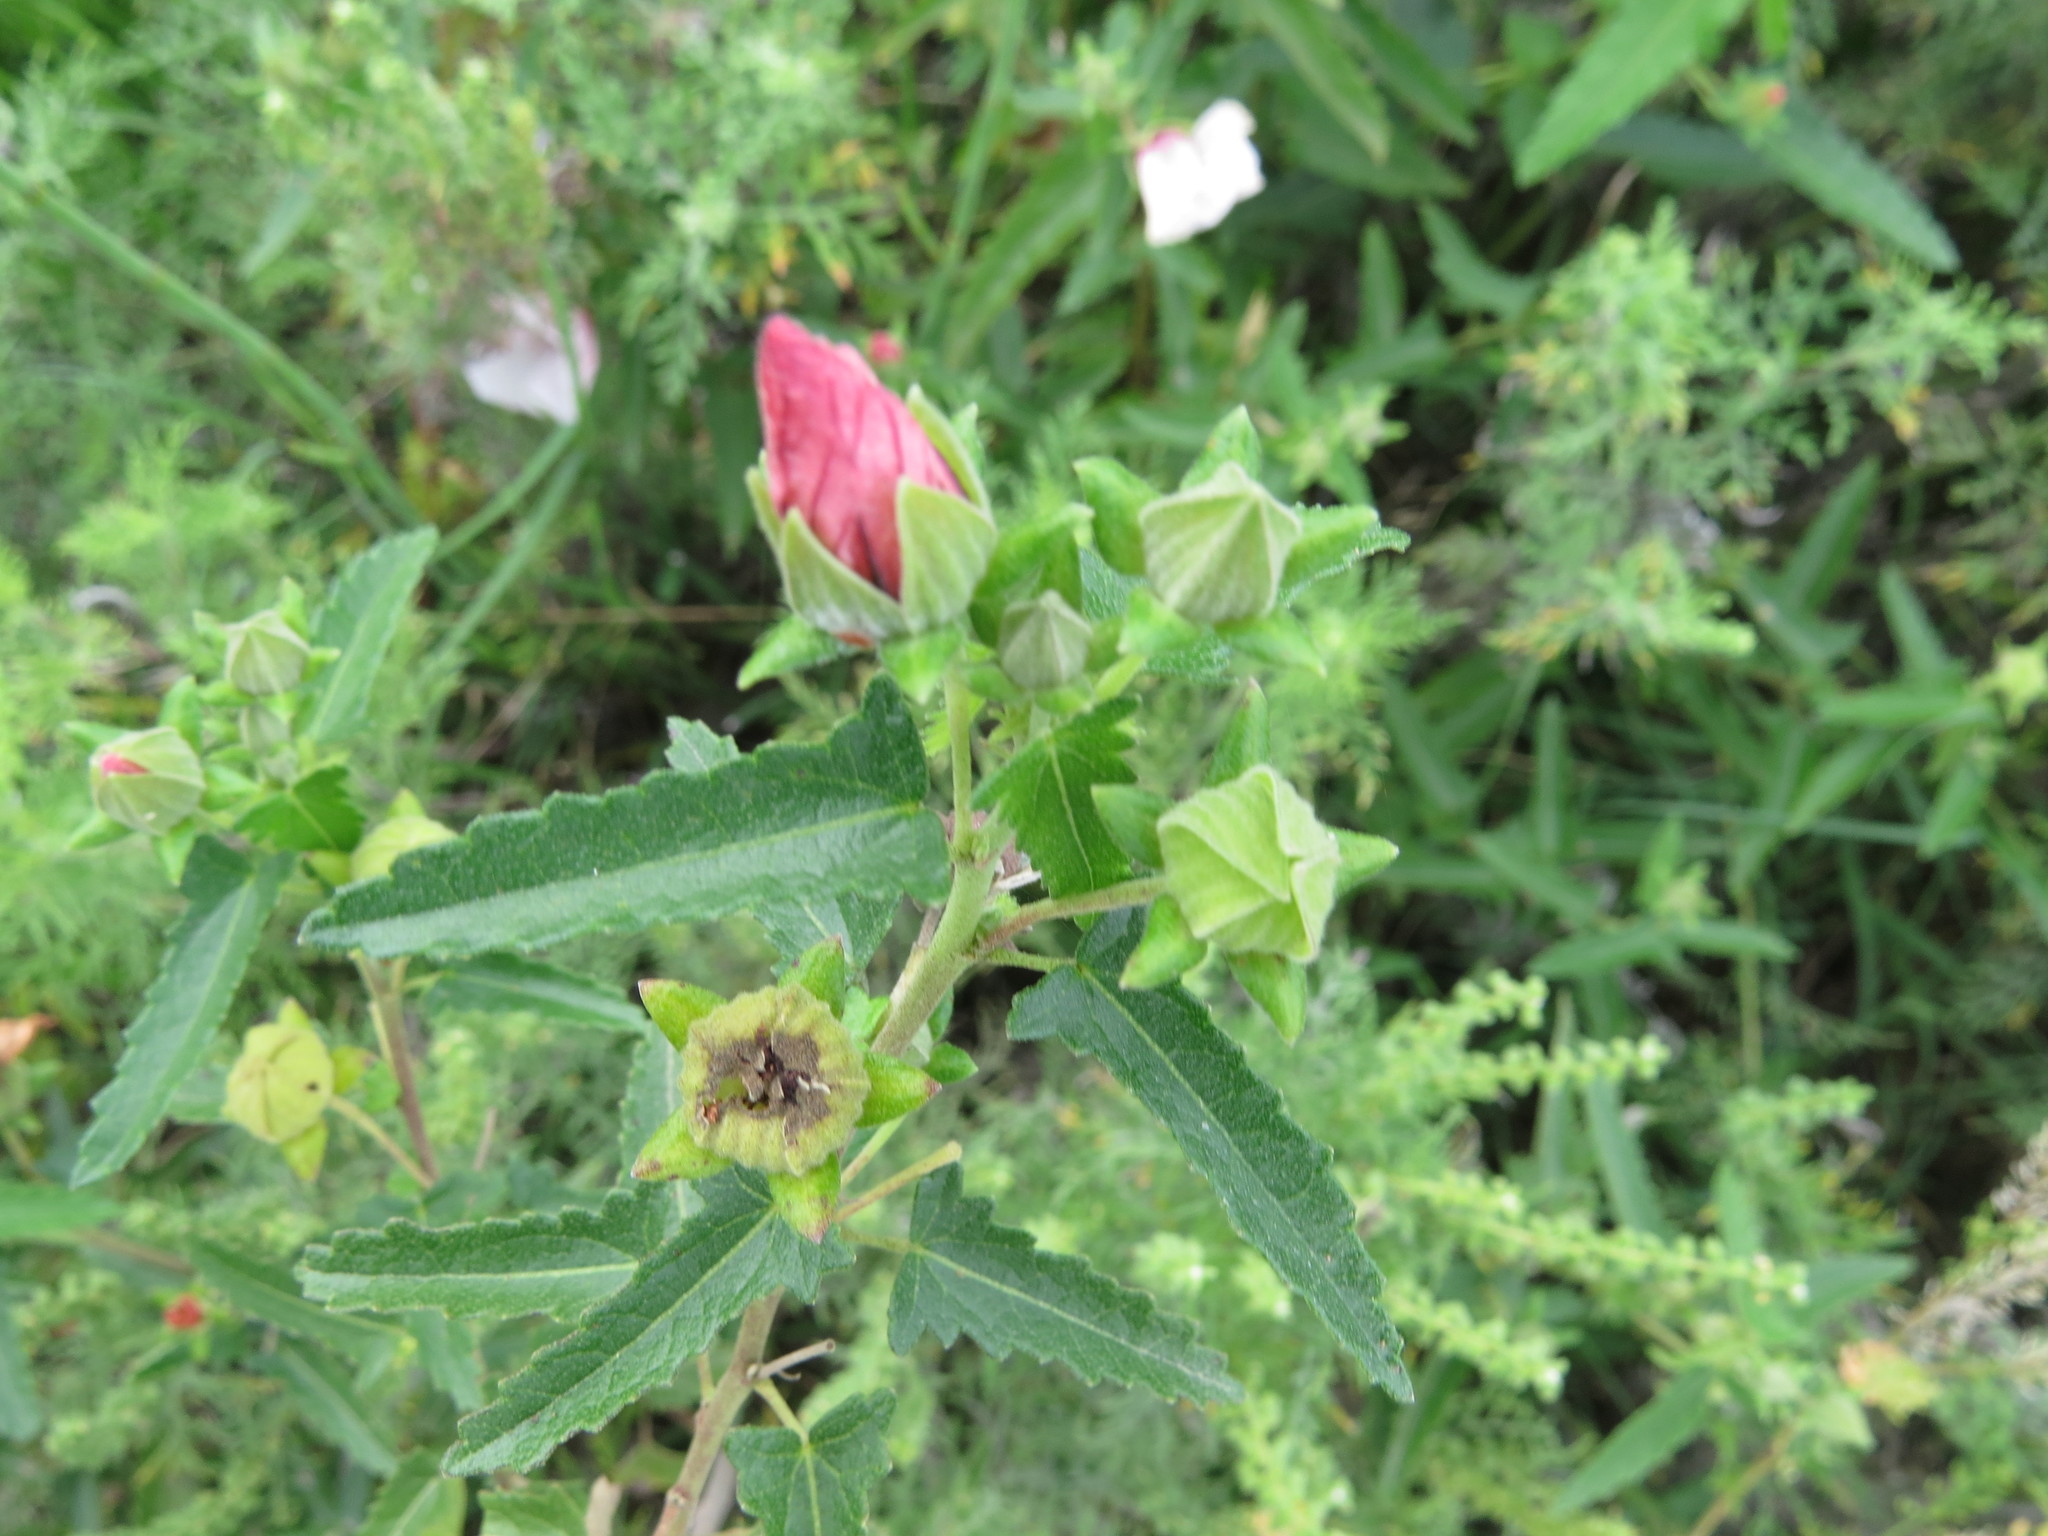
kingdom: Plantae
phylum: Tracheophyta
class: Magnoliopsida
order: Malvales
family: Malvaceae
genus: Pavonia
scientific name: Pavonia hastata
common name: Spearleaf swampmallow
